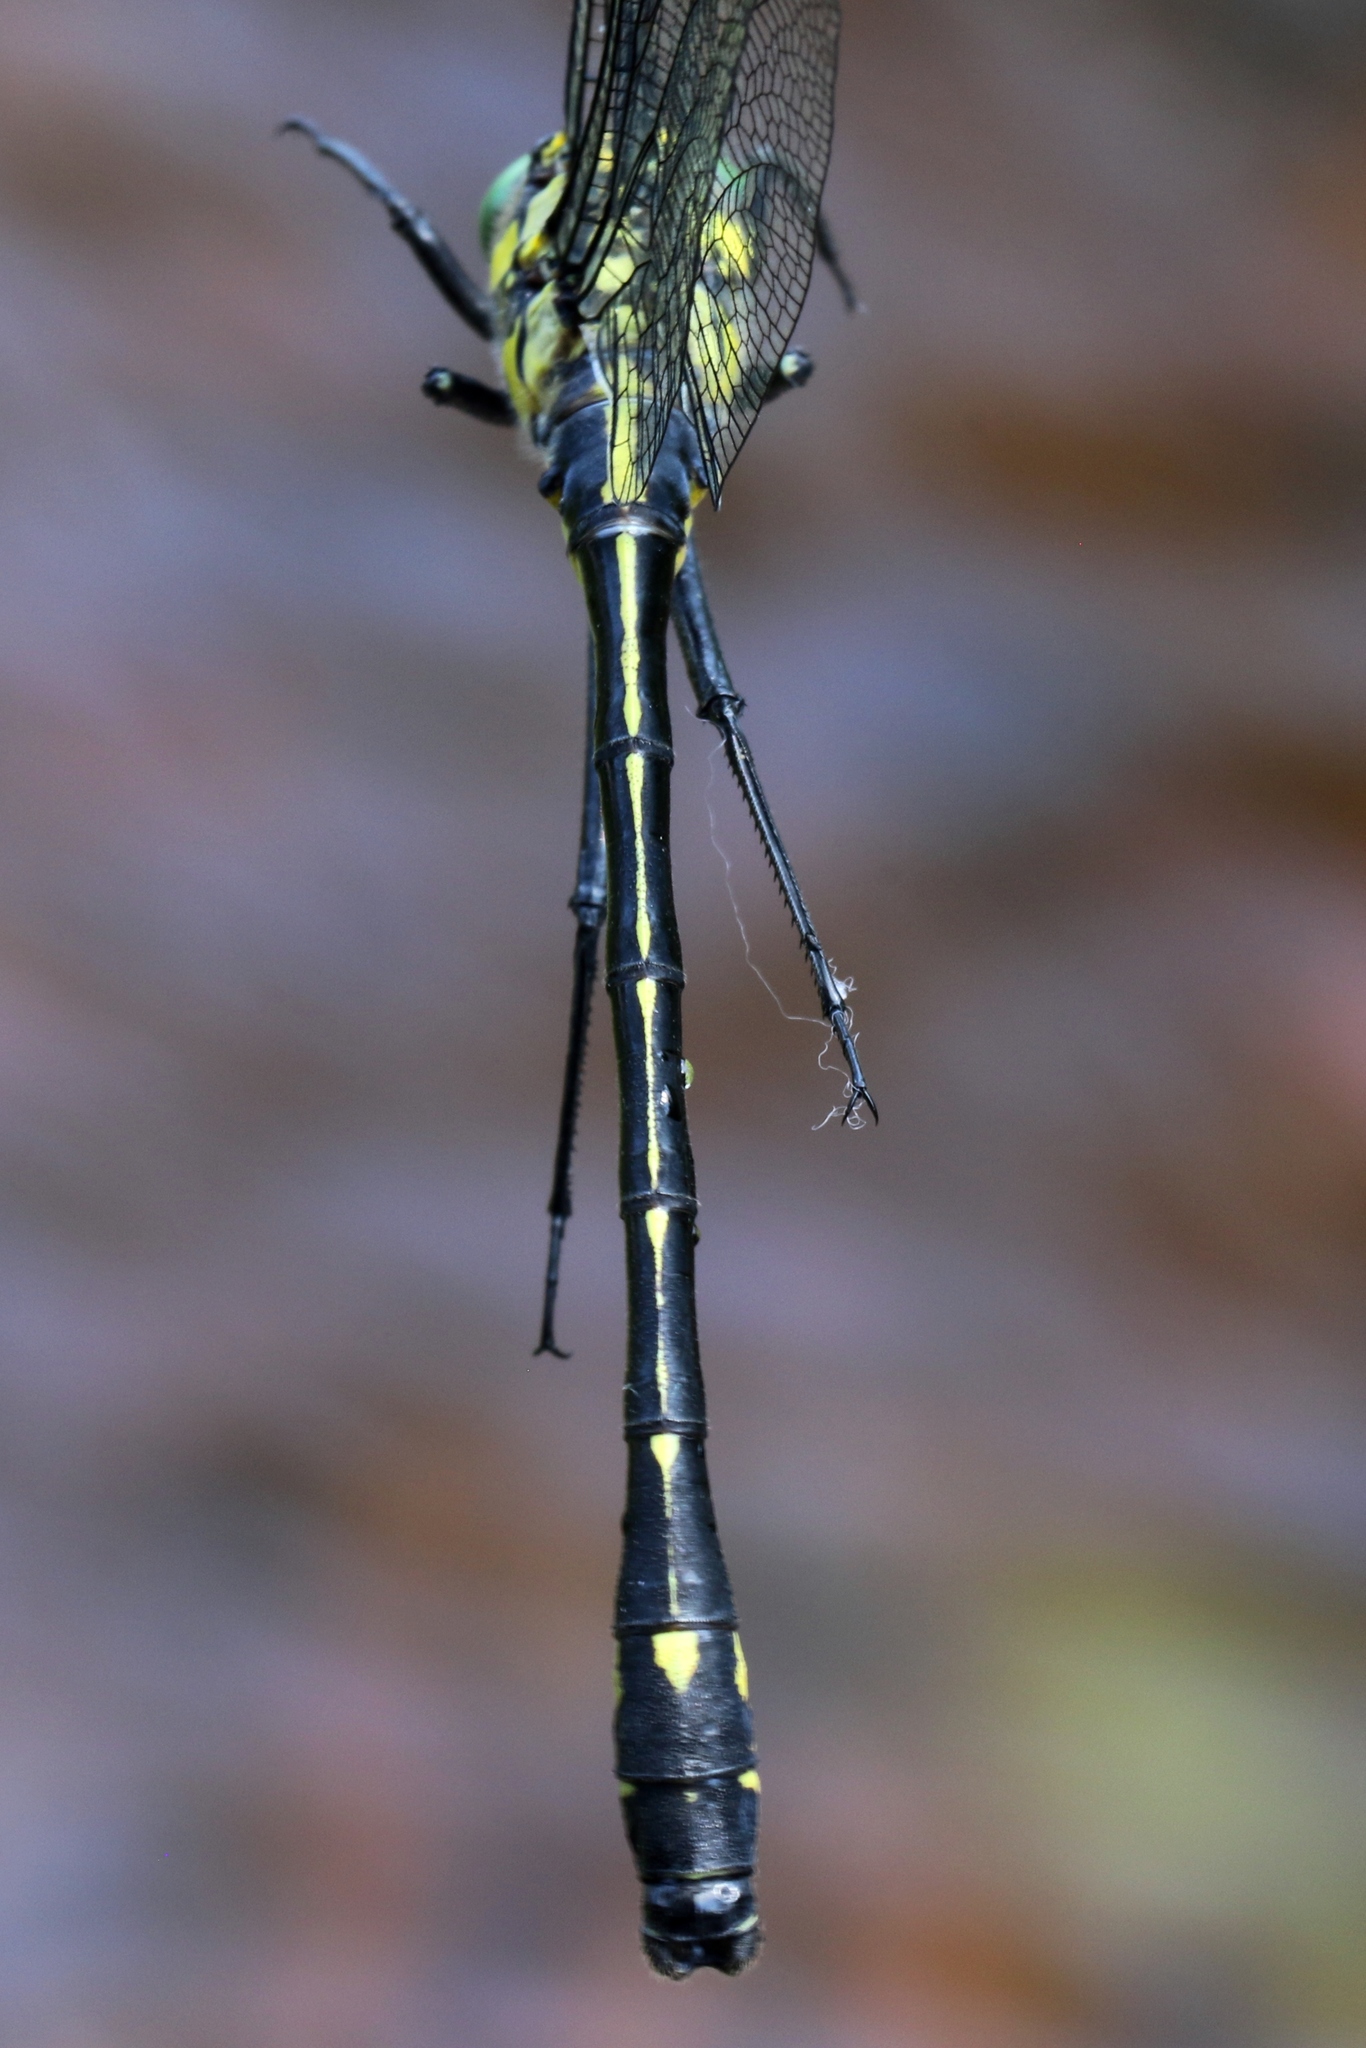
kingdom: Animalia
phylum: Arthropoda
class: Insecta
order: Odonata
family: Gomphidae
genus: Hagenius
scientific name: Hagenius brevistylus
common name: Dragonhunter
